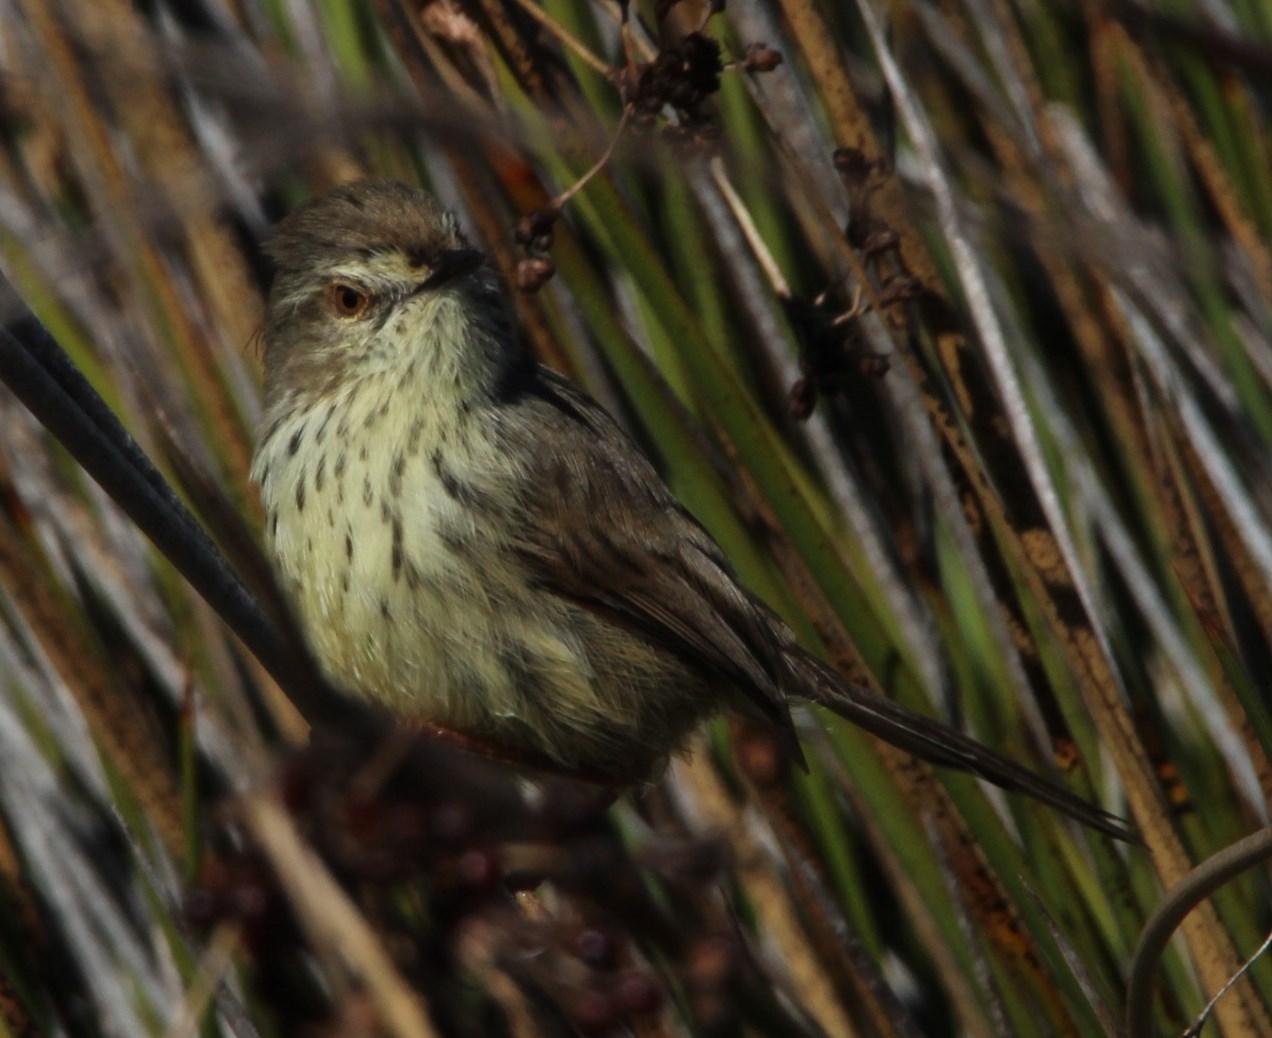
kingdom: Animalia
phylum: Chordata
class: Aves
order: Passeriformes
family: Cisticolidae
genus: Prinia
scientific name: Prinia maculosa
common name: Karoo prinia
